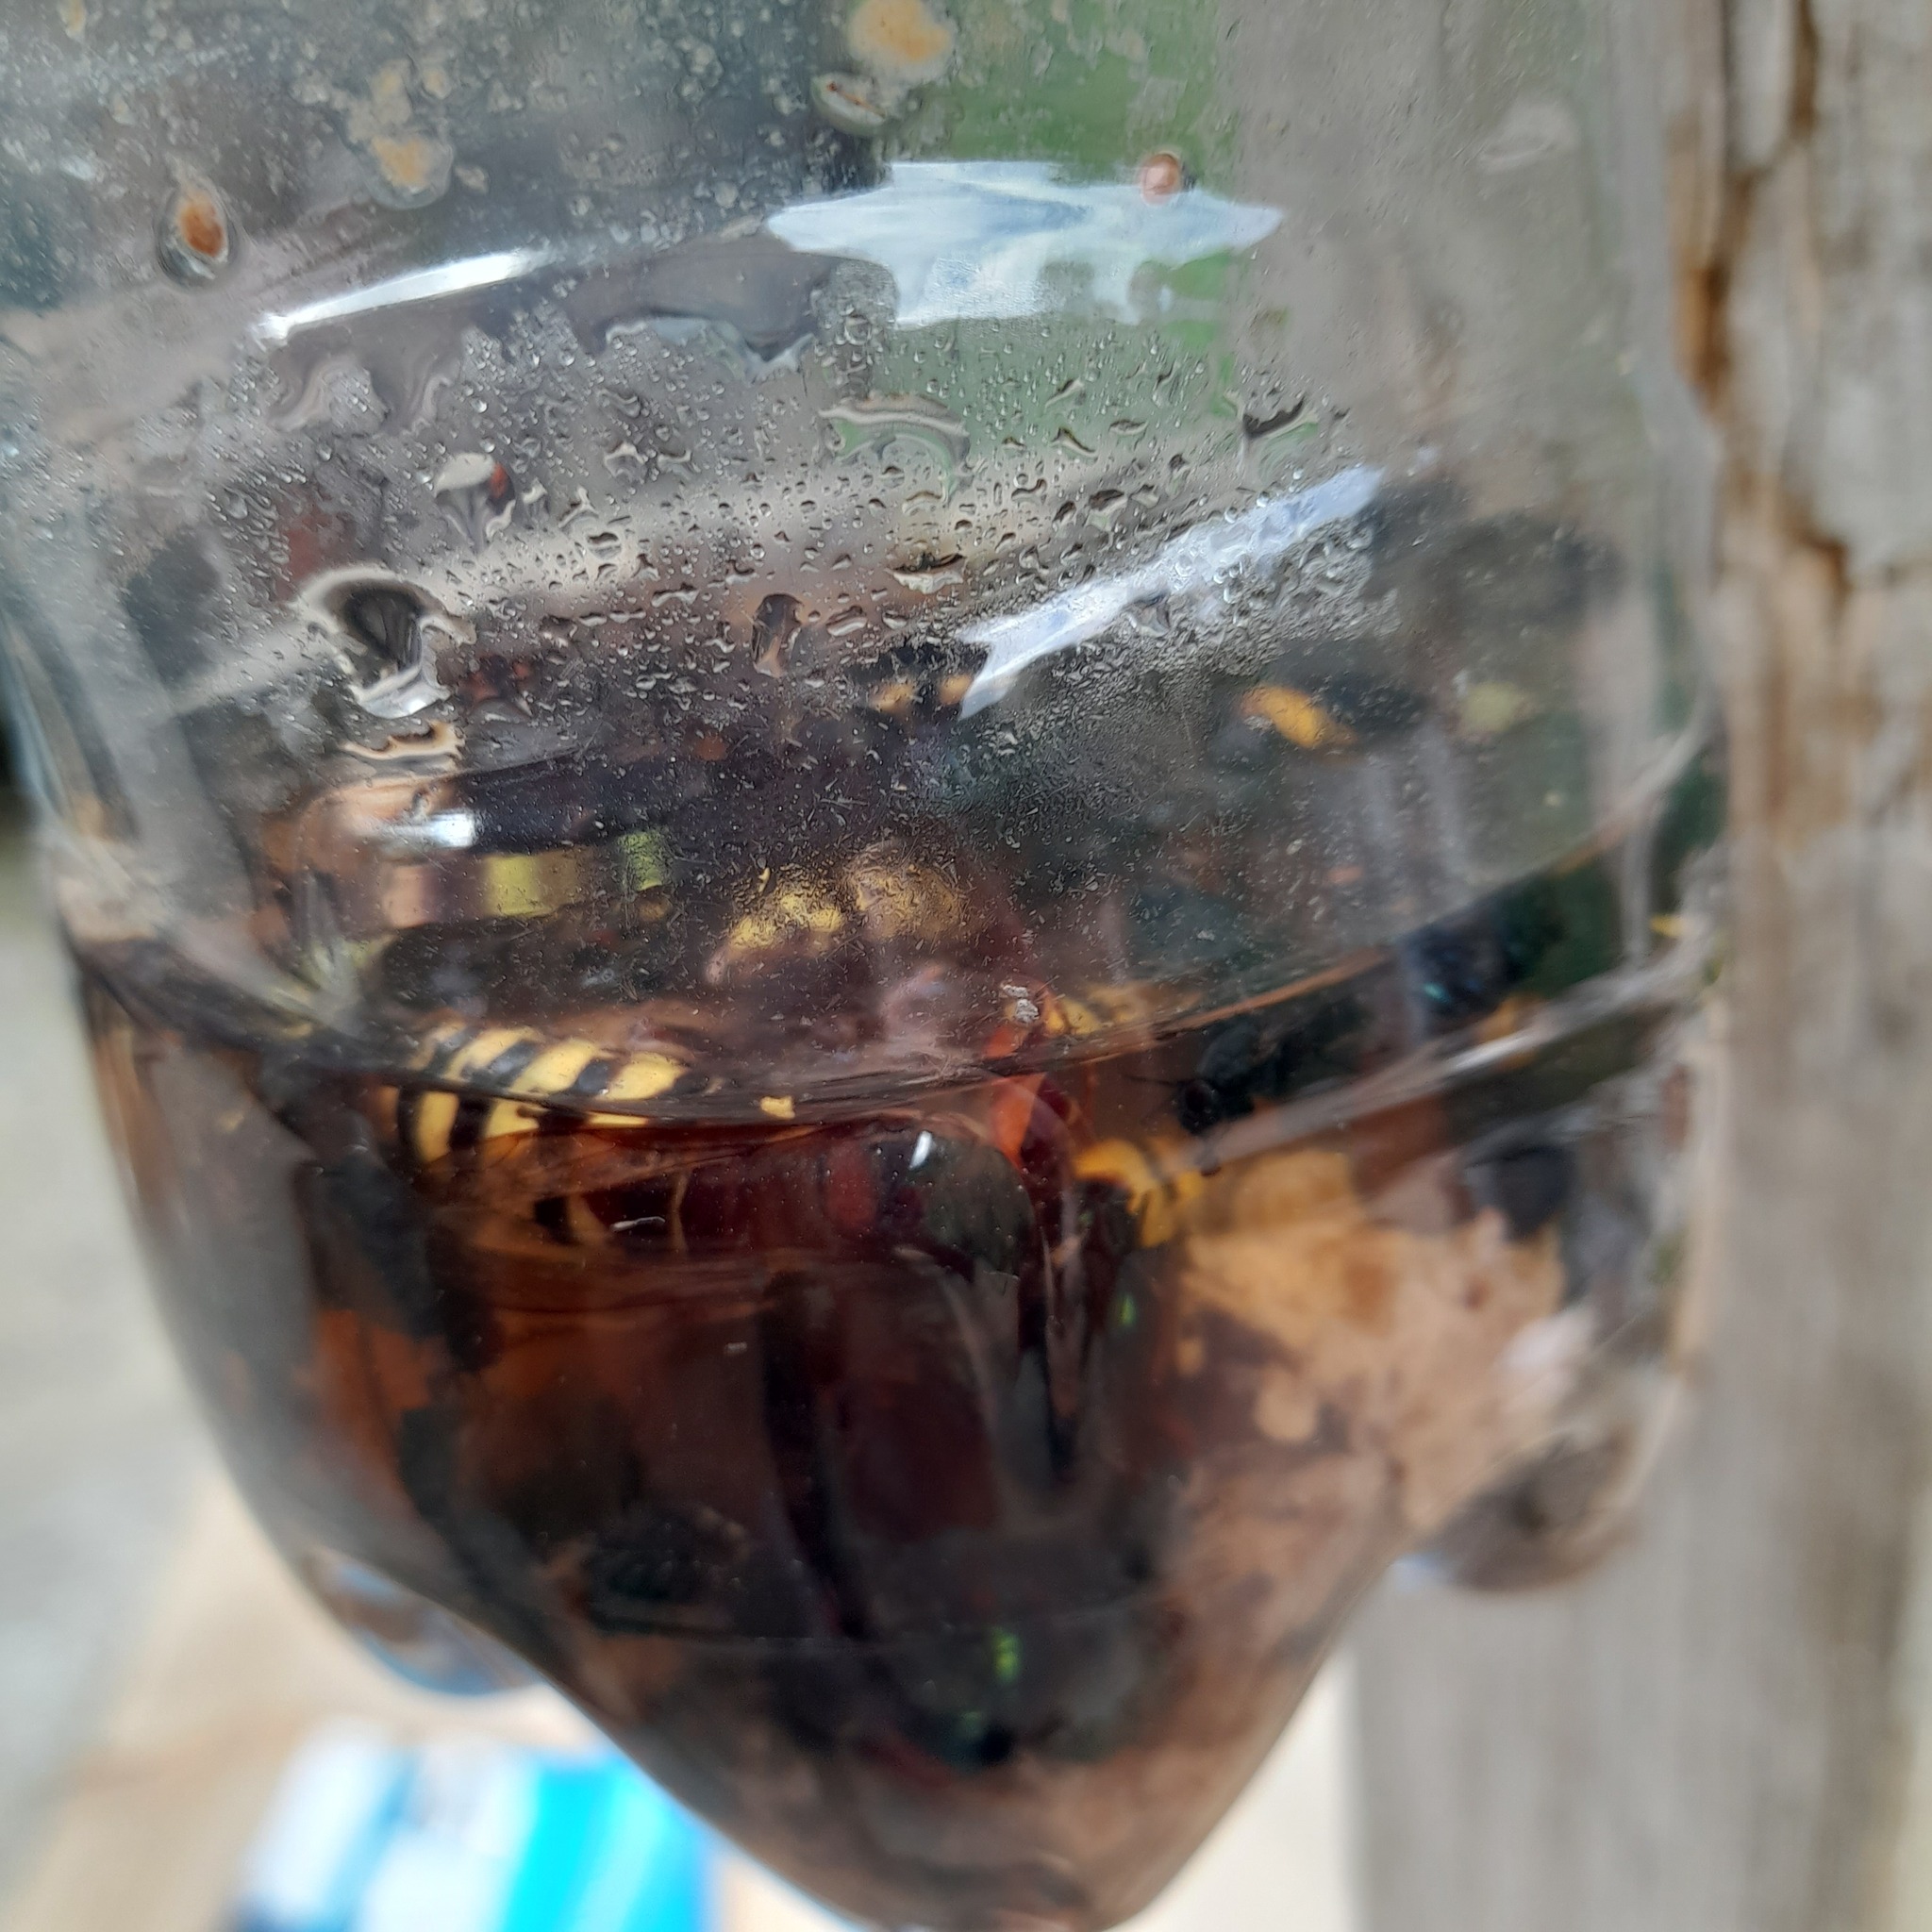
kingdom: Animalia
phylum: Arthropoda
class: Insecta
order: Hymenoptera
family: Vespidae
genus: Vespa
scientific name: Vespa crabro
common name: Hornet
